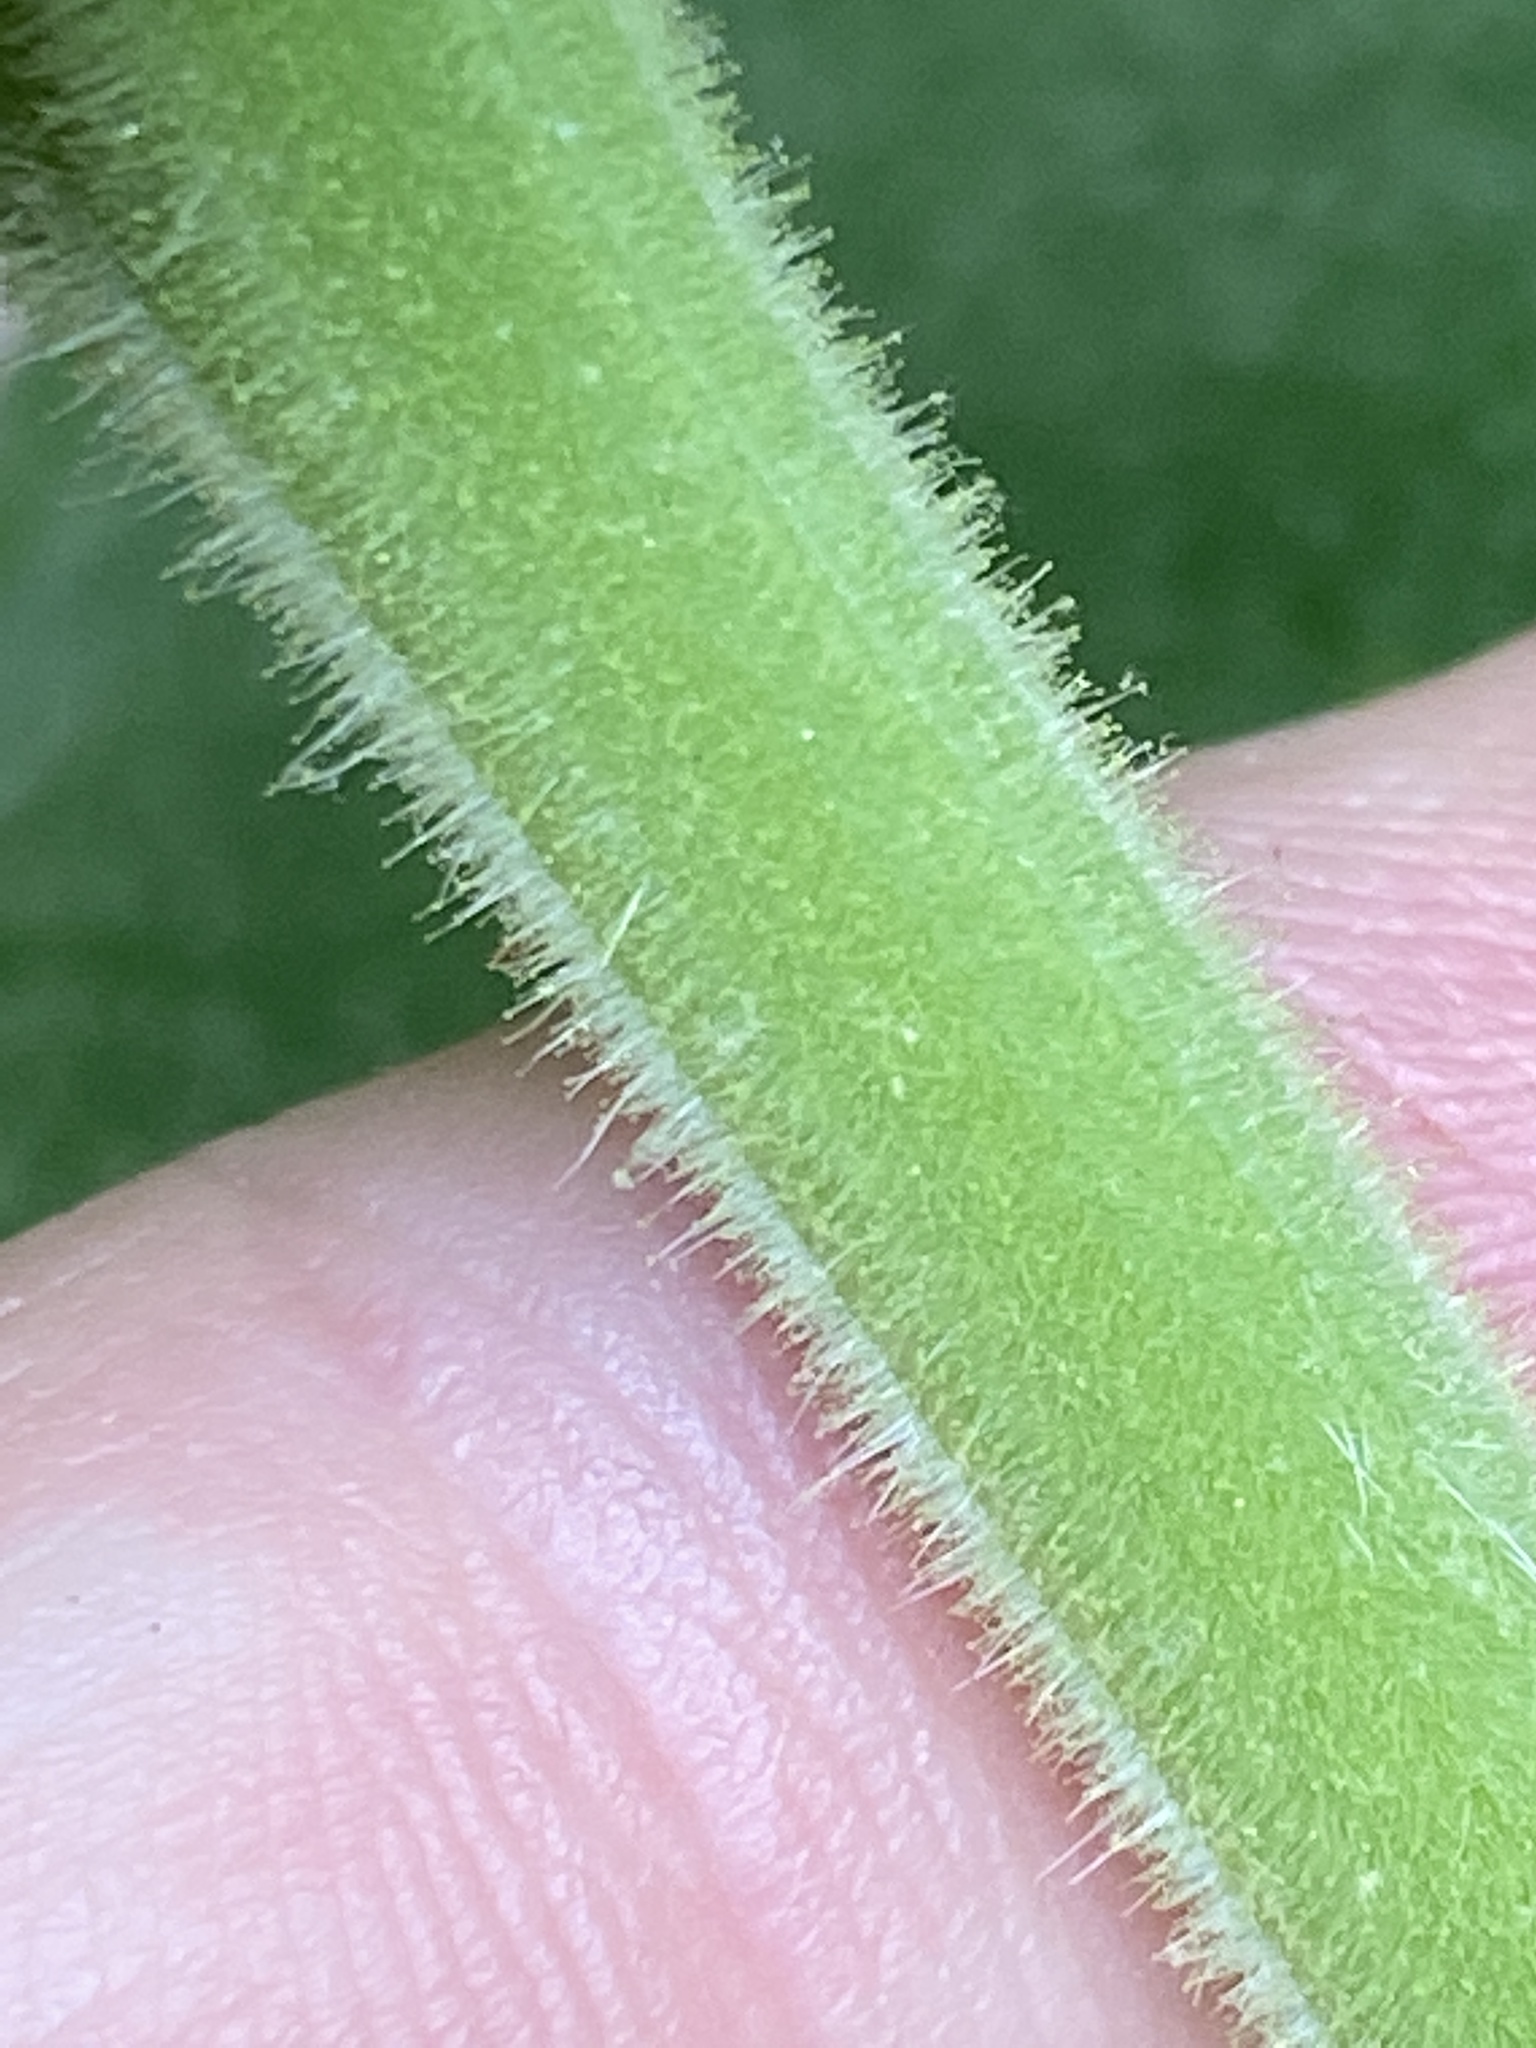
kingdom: Plantae
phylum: Tracheophyta
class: Magnoliopsida
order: Solanales
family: Solanaceae
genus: Physalis
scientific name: Physalis heterophylla
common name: Clammy ground-cherry
